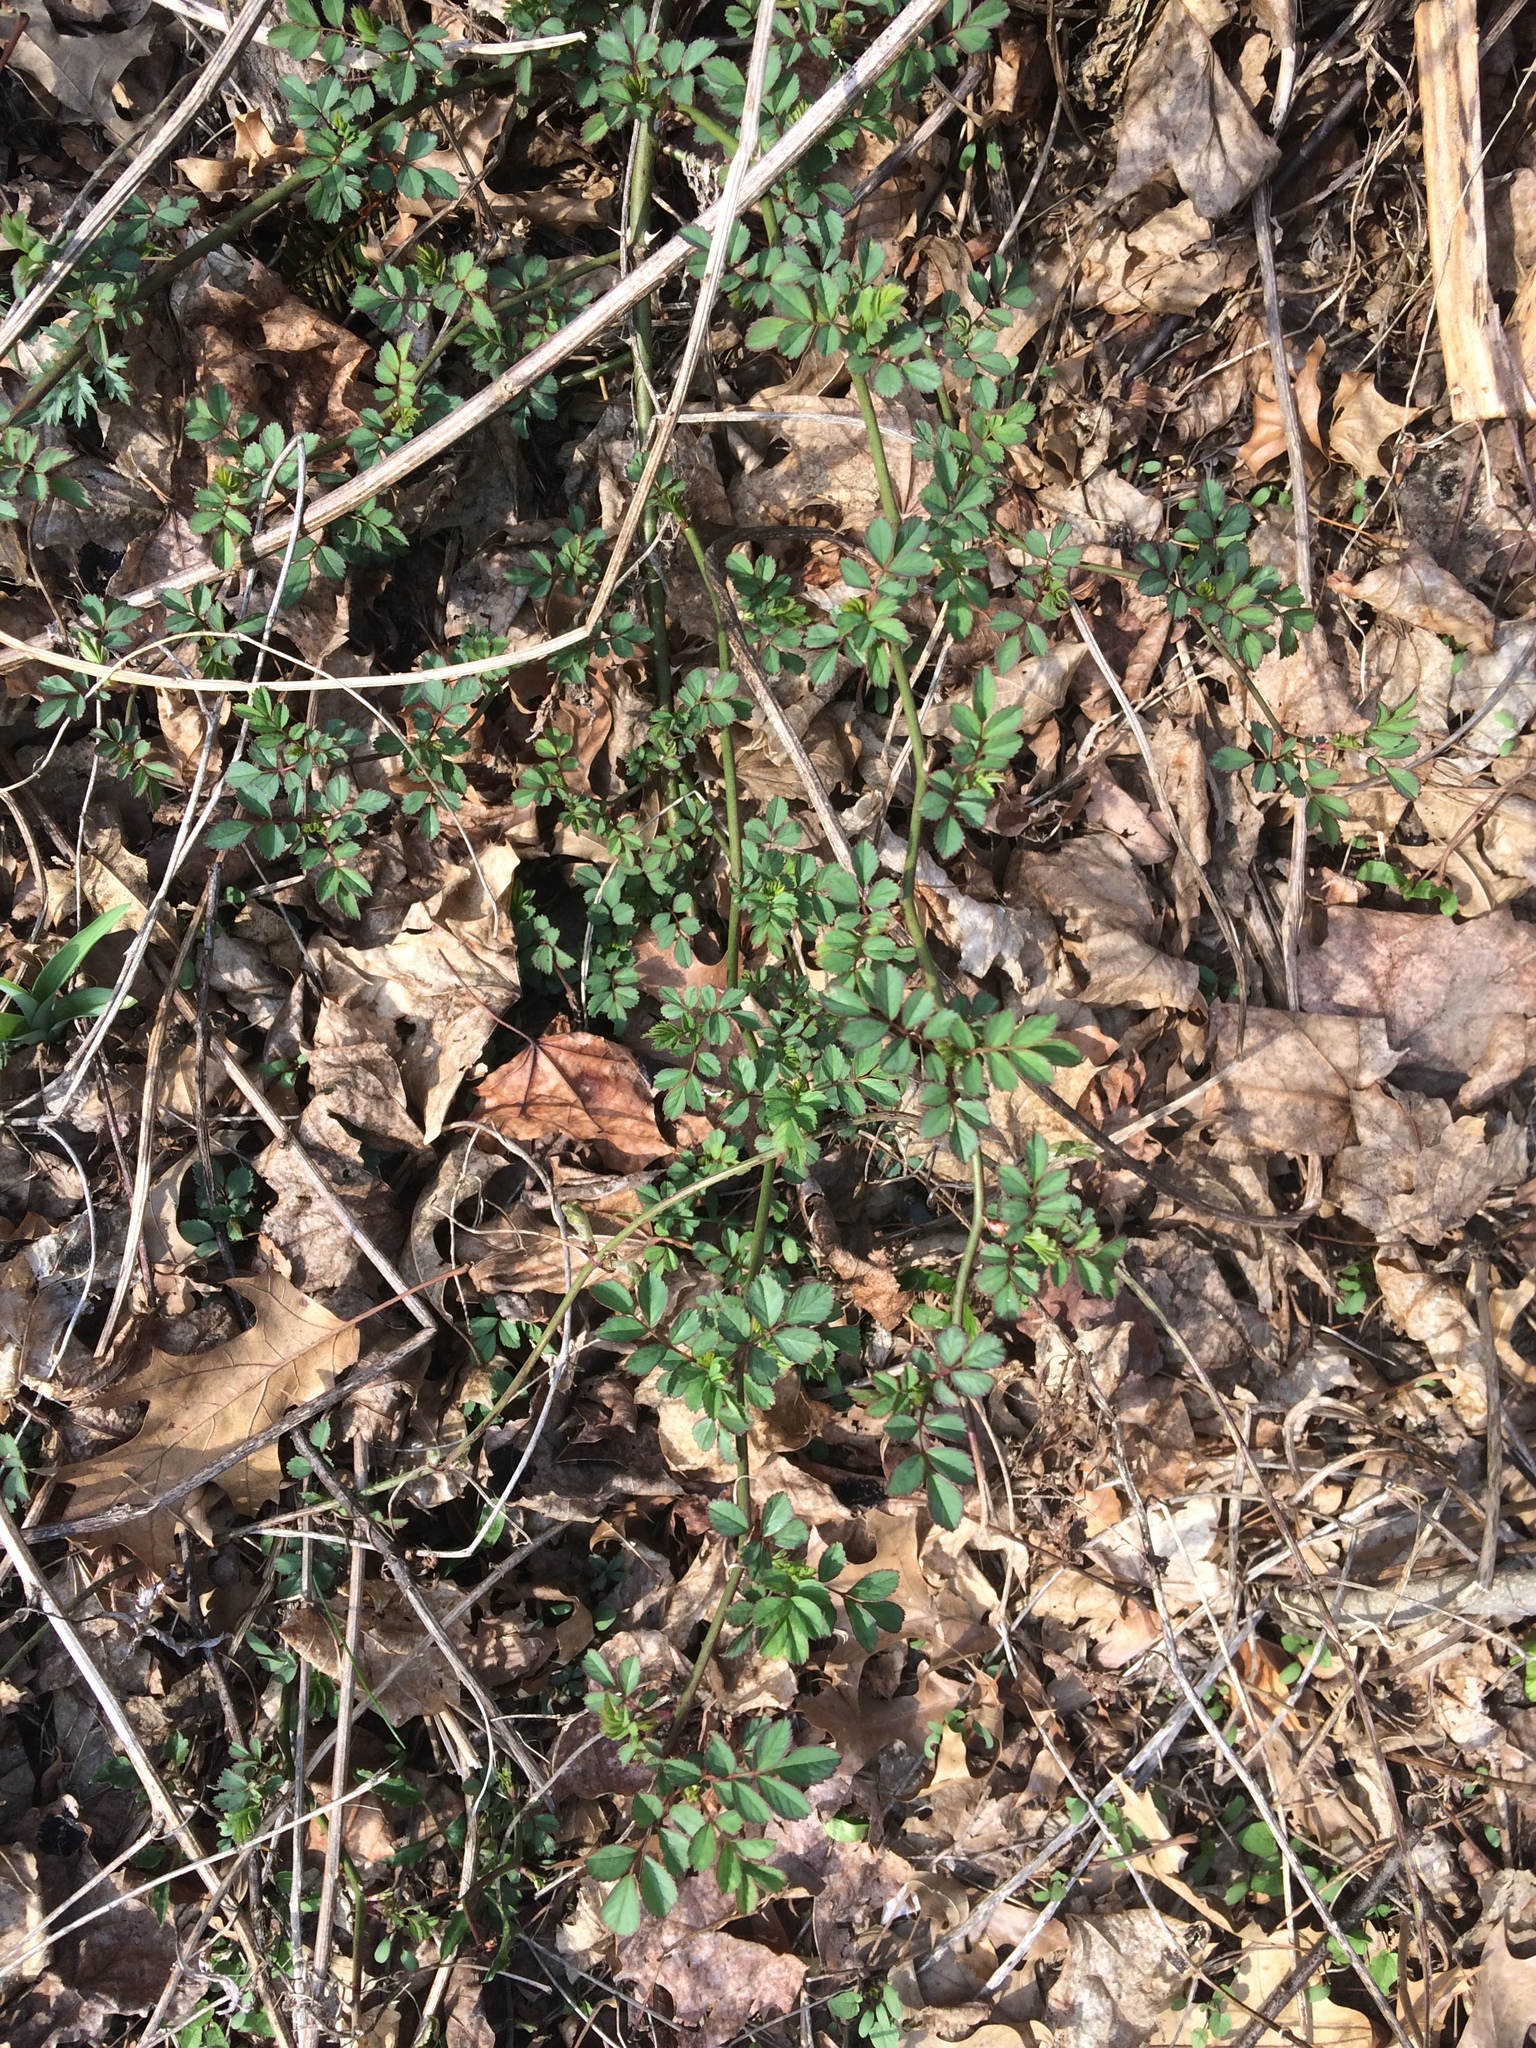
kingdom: Plantae
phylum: Tracheophyta
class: Magnoliopsida
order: Rosales
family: Rosaceae
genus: Rosa
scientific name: Rosa multiflora
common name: Multiflora rose
